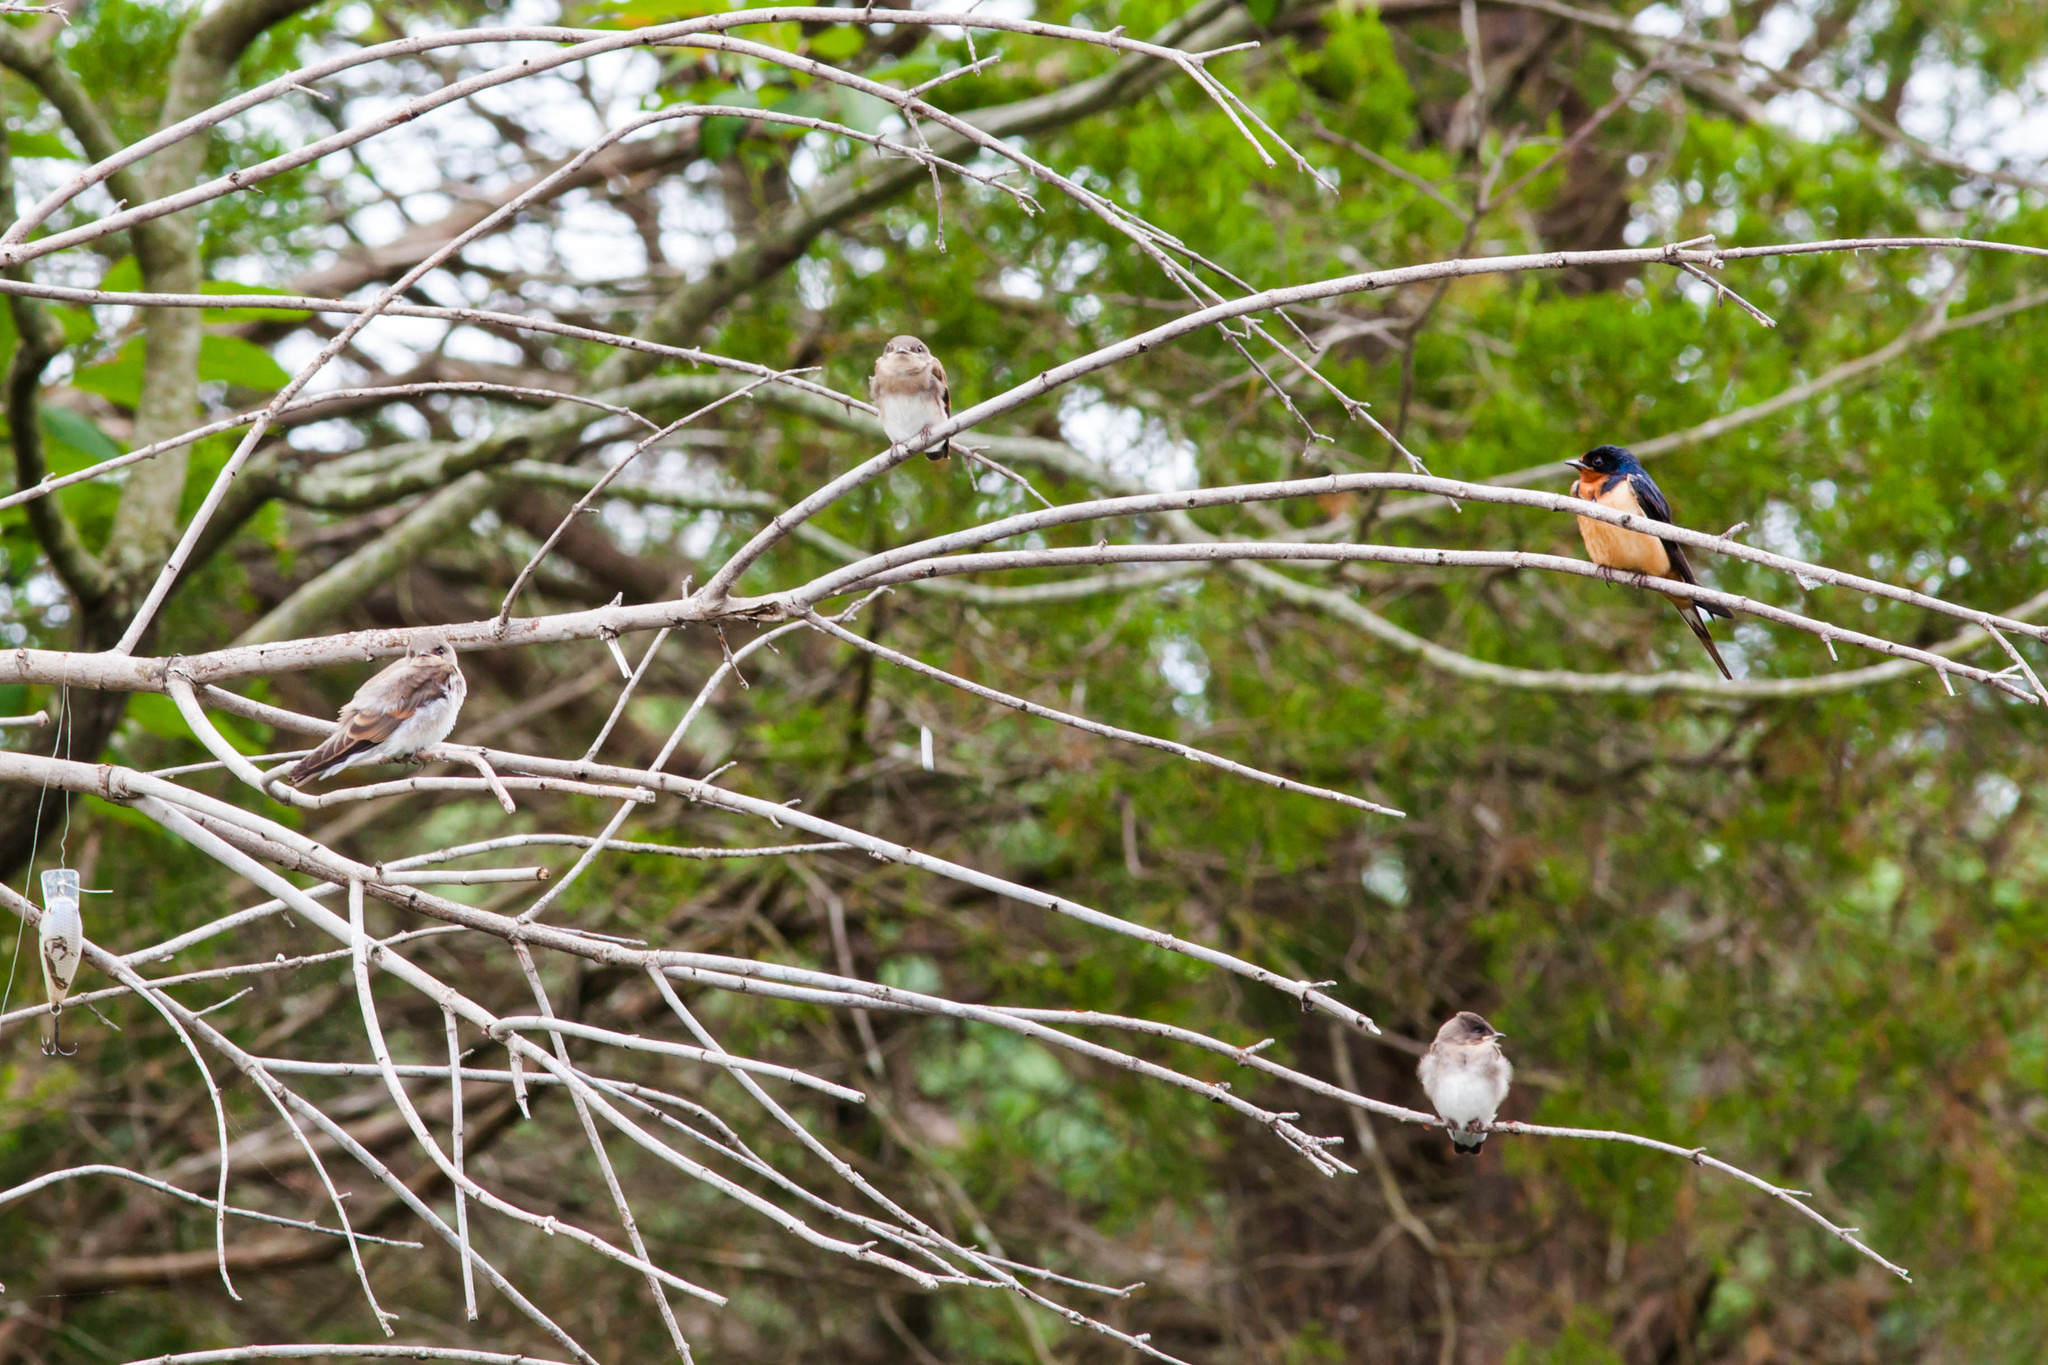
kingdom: Animalia
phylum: Chordata
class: Aves
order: Passeriformes
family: Hirundinidae
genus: Hirundo
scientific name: Hirundo rustica
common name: Barn swallow
